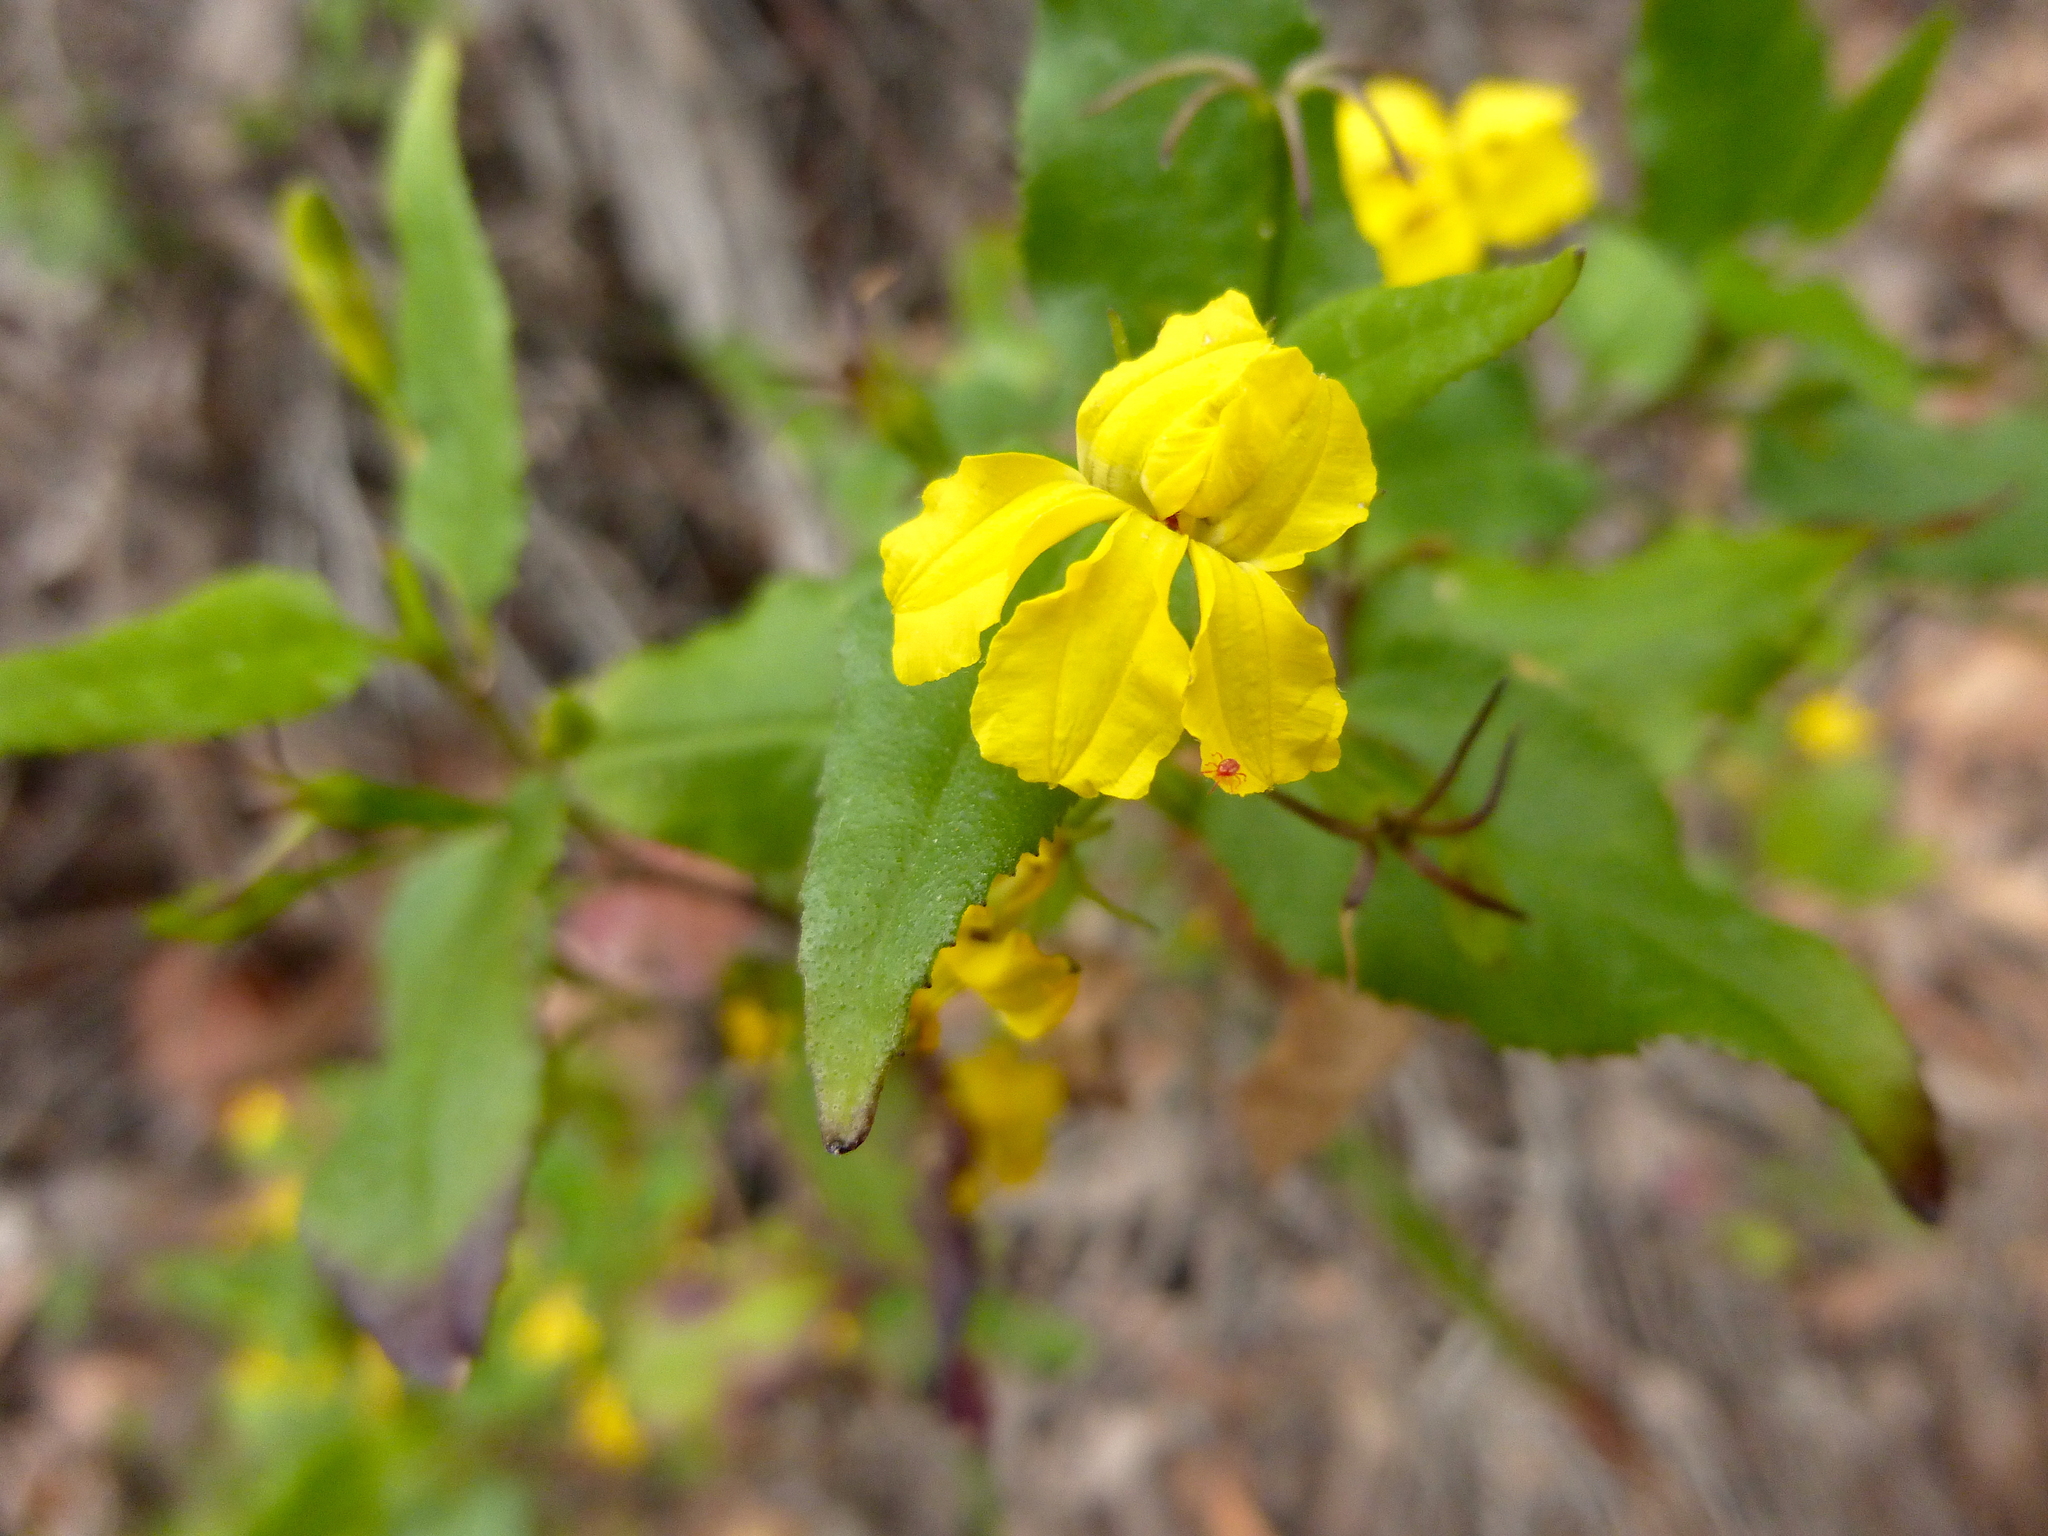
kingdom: Plantae
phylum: Tracheophyta
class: Magnoliopsida
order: Asterales
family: Goodeniaceae
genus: Goodenia
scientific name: Goodenia ovata
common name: Hop goodenia
